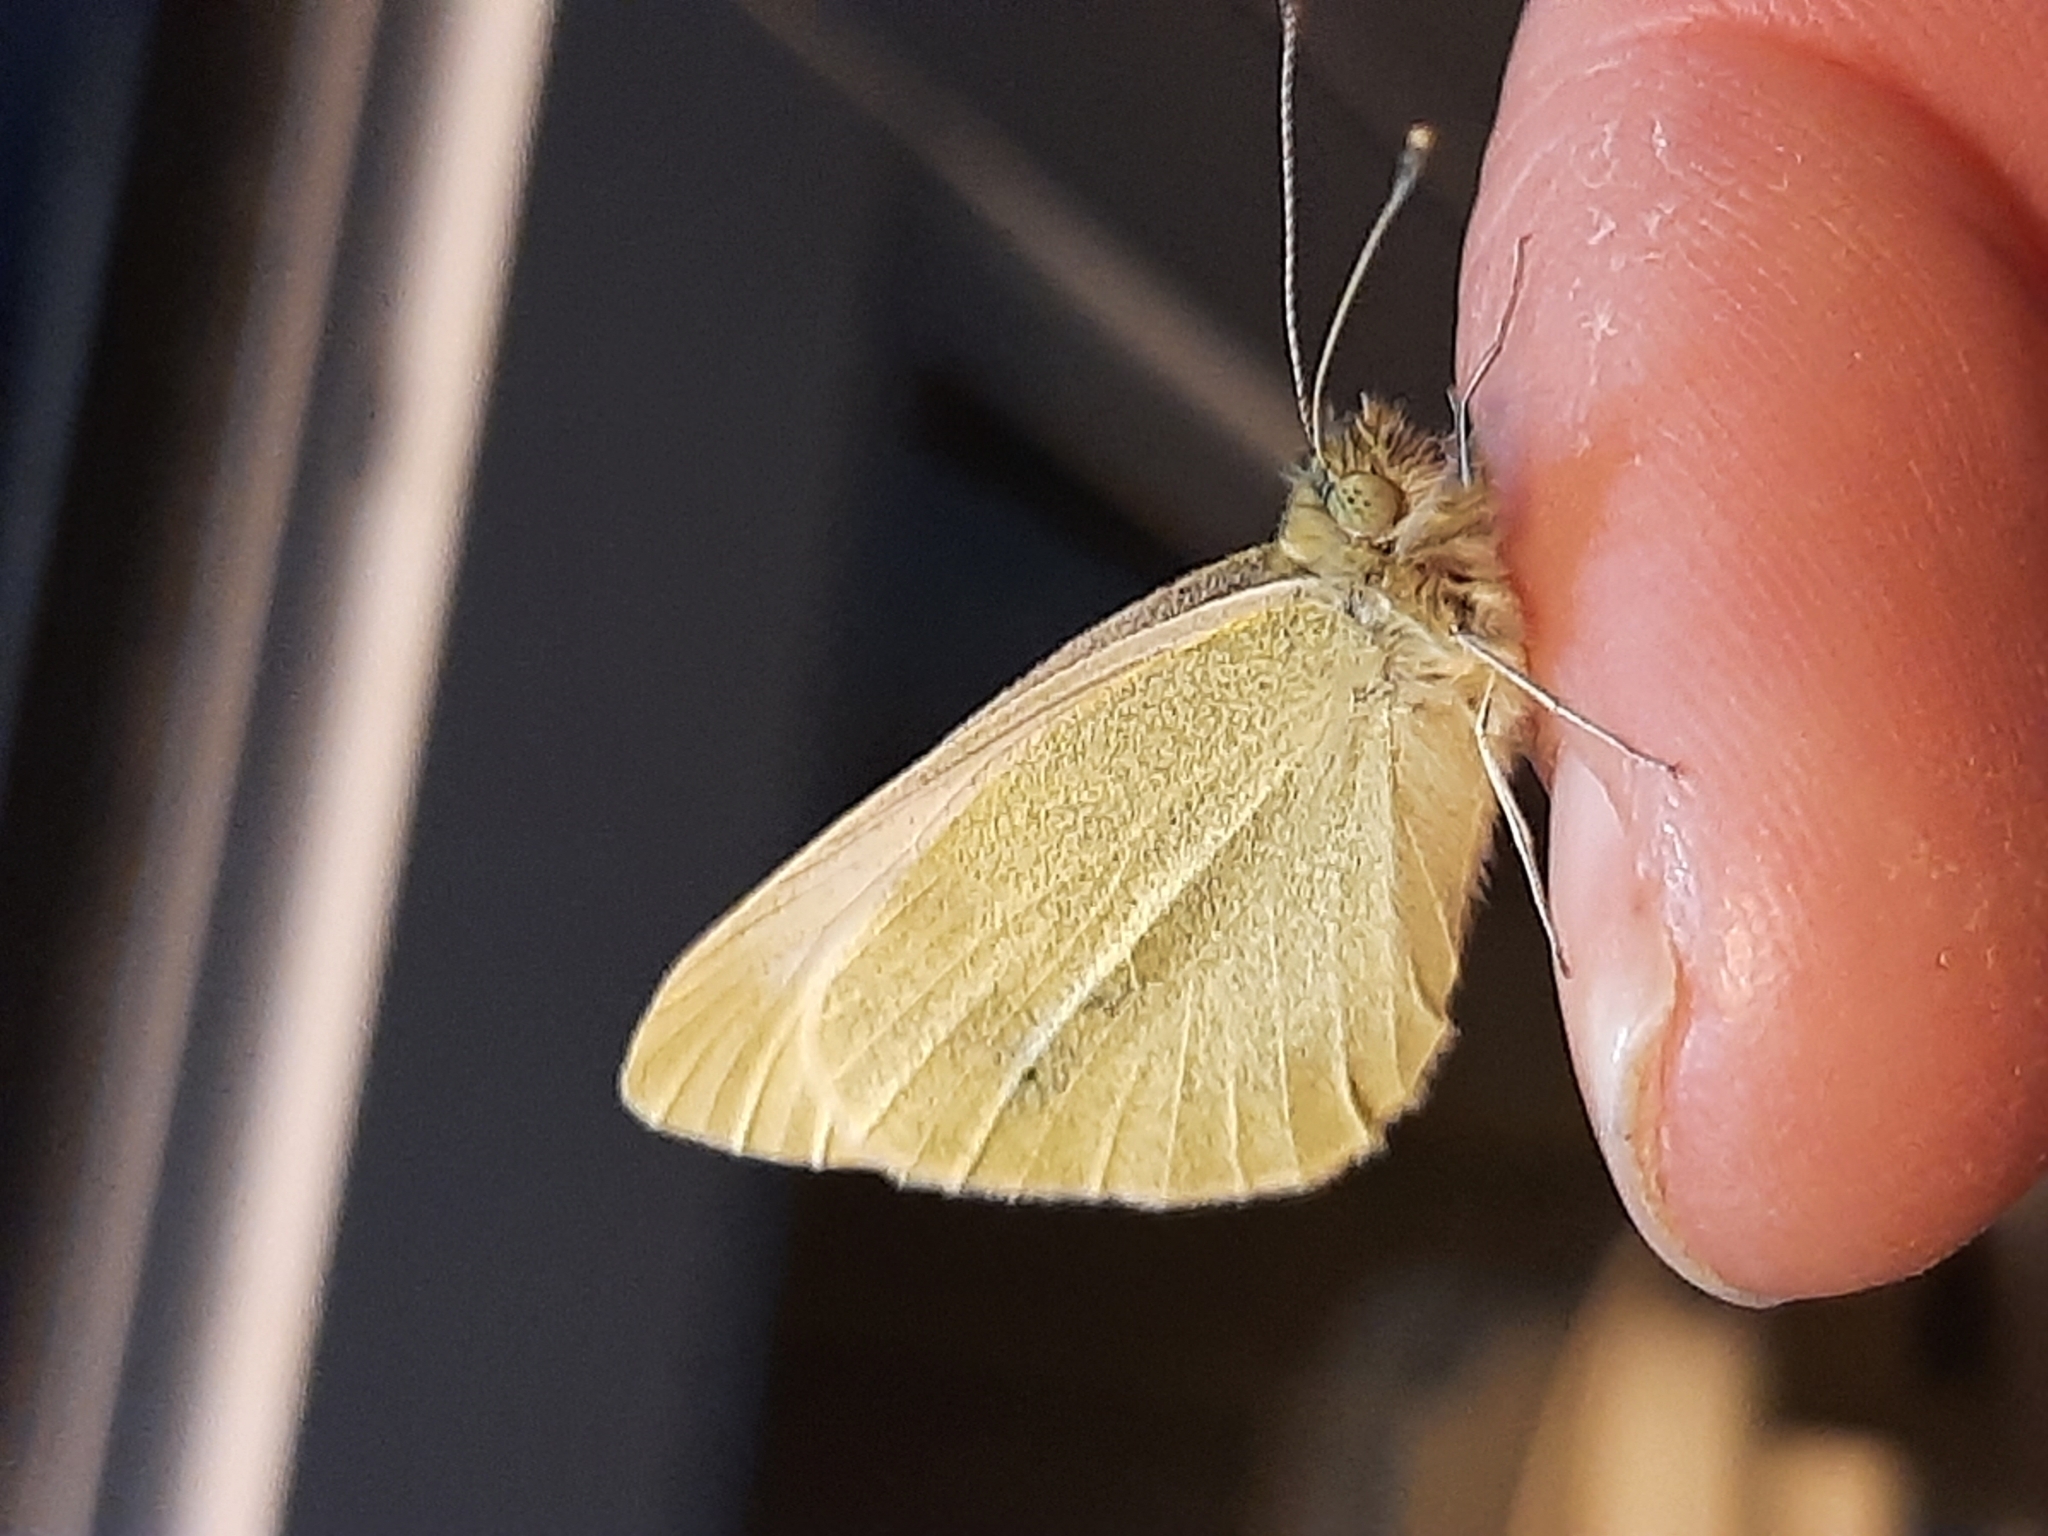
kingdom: Animalia
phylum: Arthropoda
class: Insecta
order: Lepidoptera
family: Pieridae
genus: Pieris
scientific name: Pieris rapae
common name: Small white
